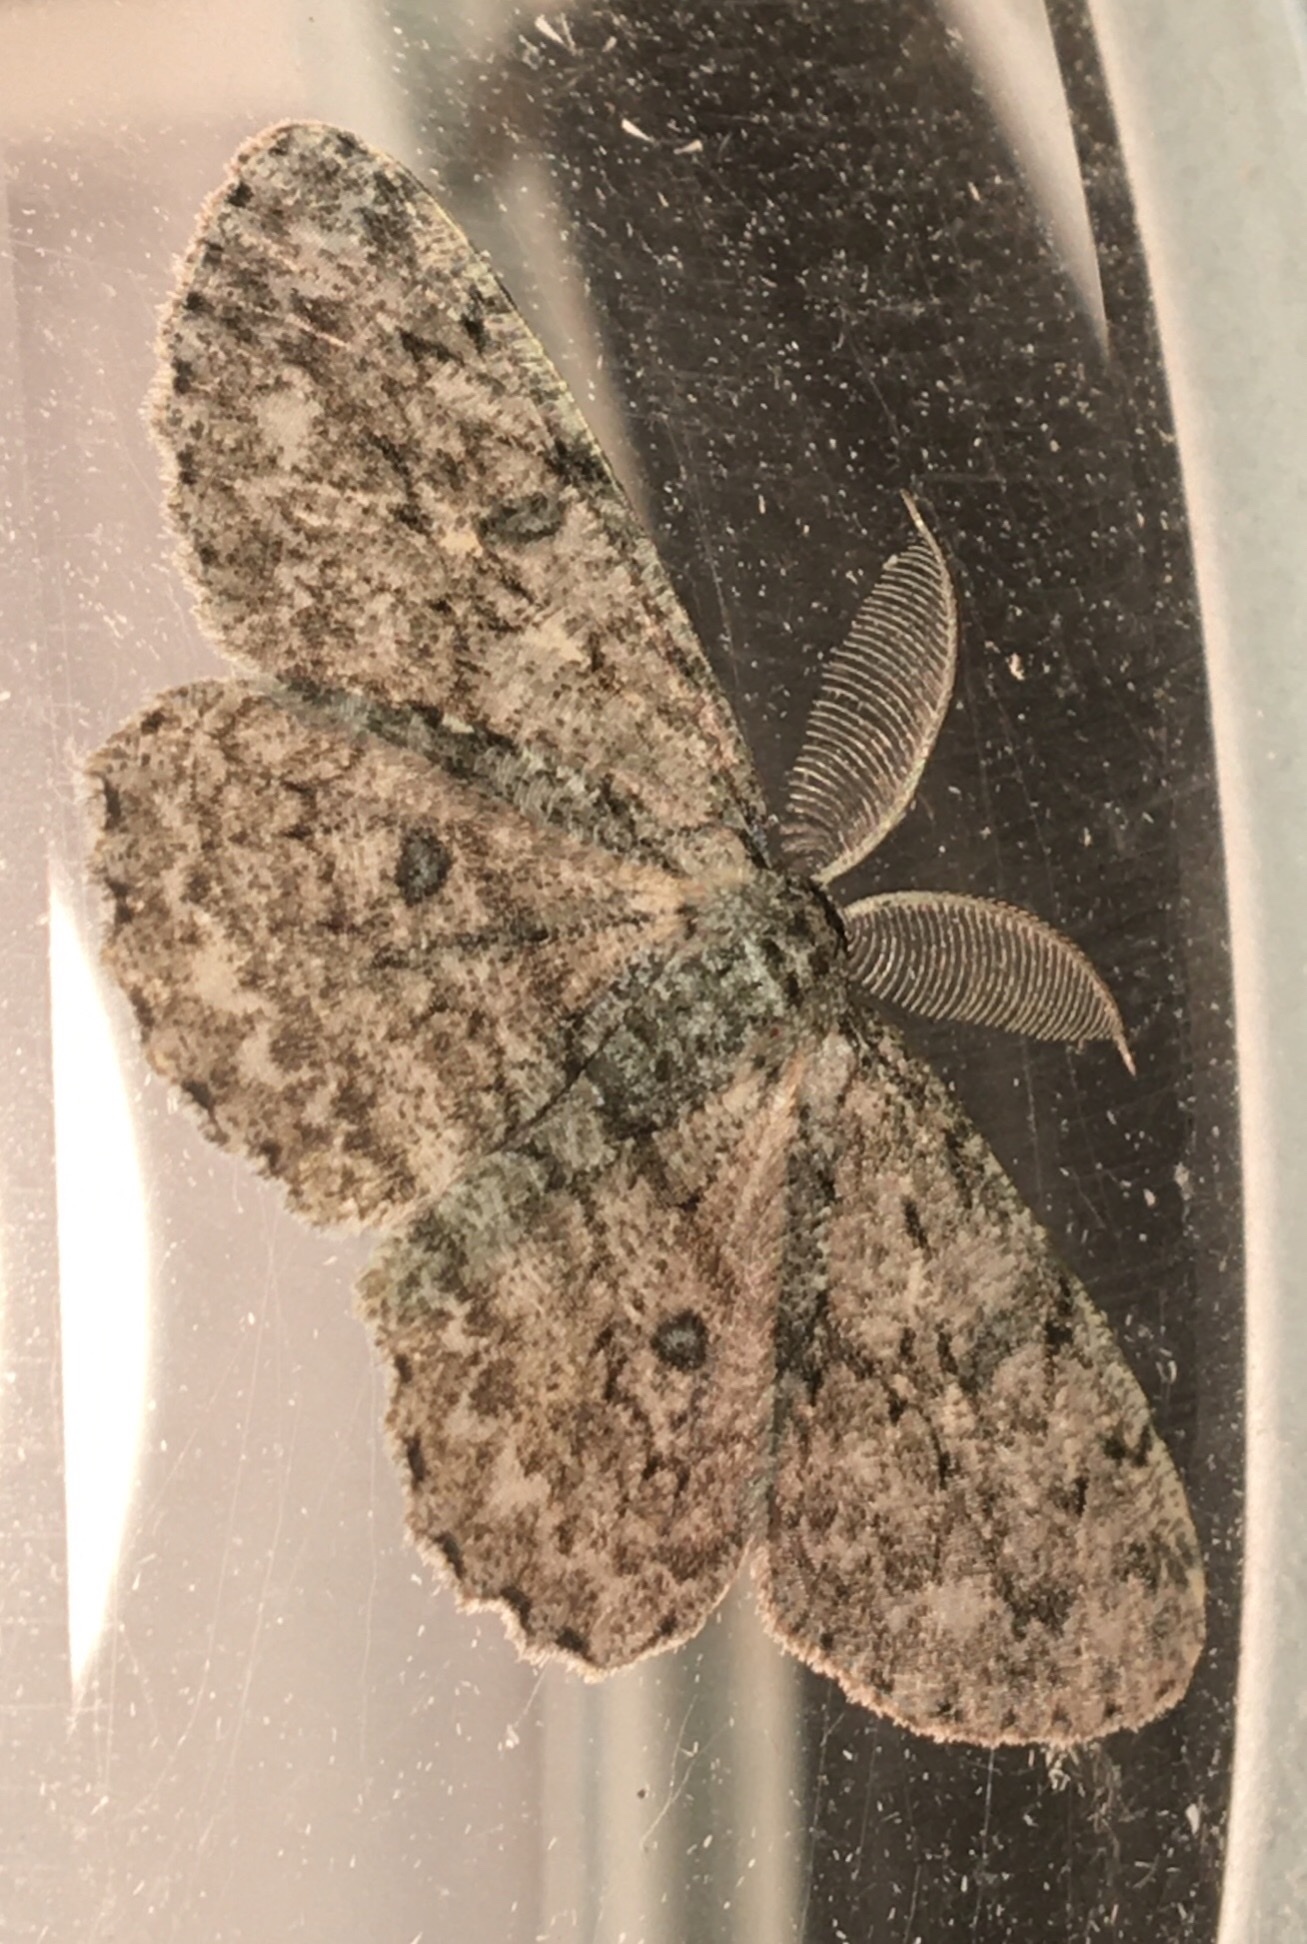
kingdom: Animalia
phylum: Arthropoda
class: Insecta
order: Lepidoptera
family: Geometridae
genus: Hypomecis
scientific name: Hypomecis umbrosaria
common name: Umber moth
